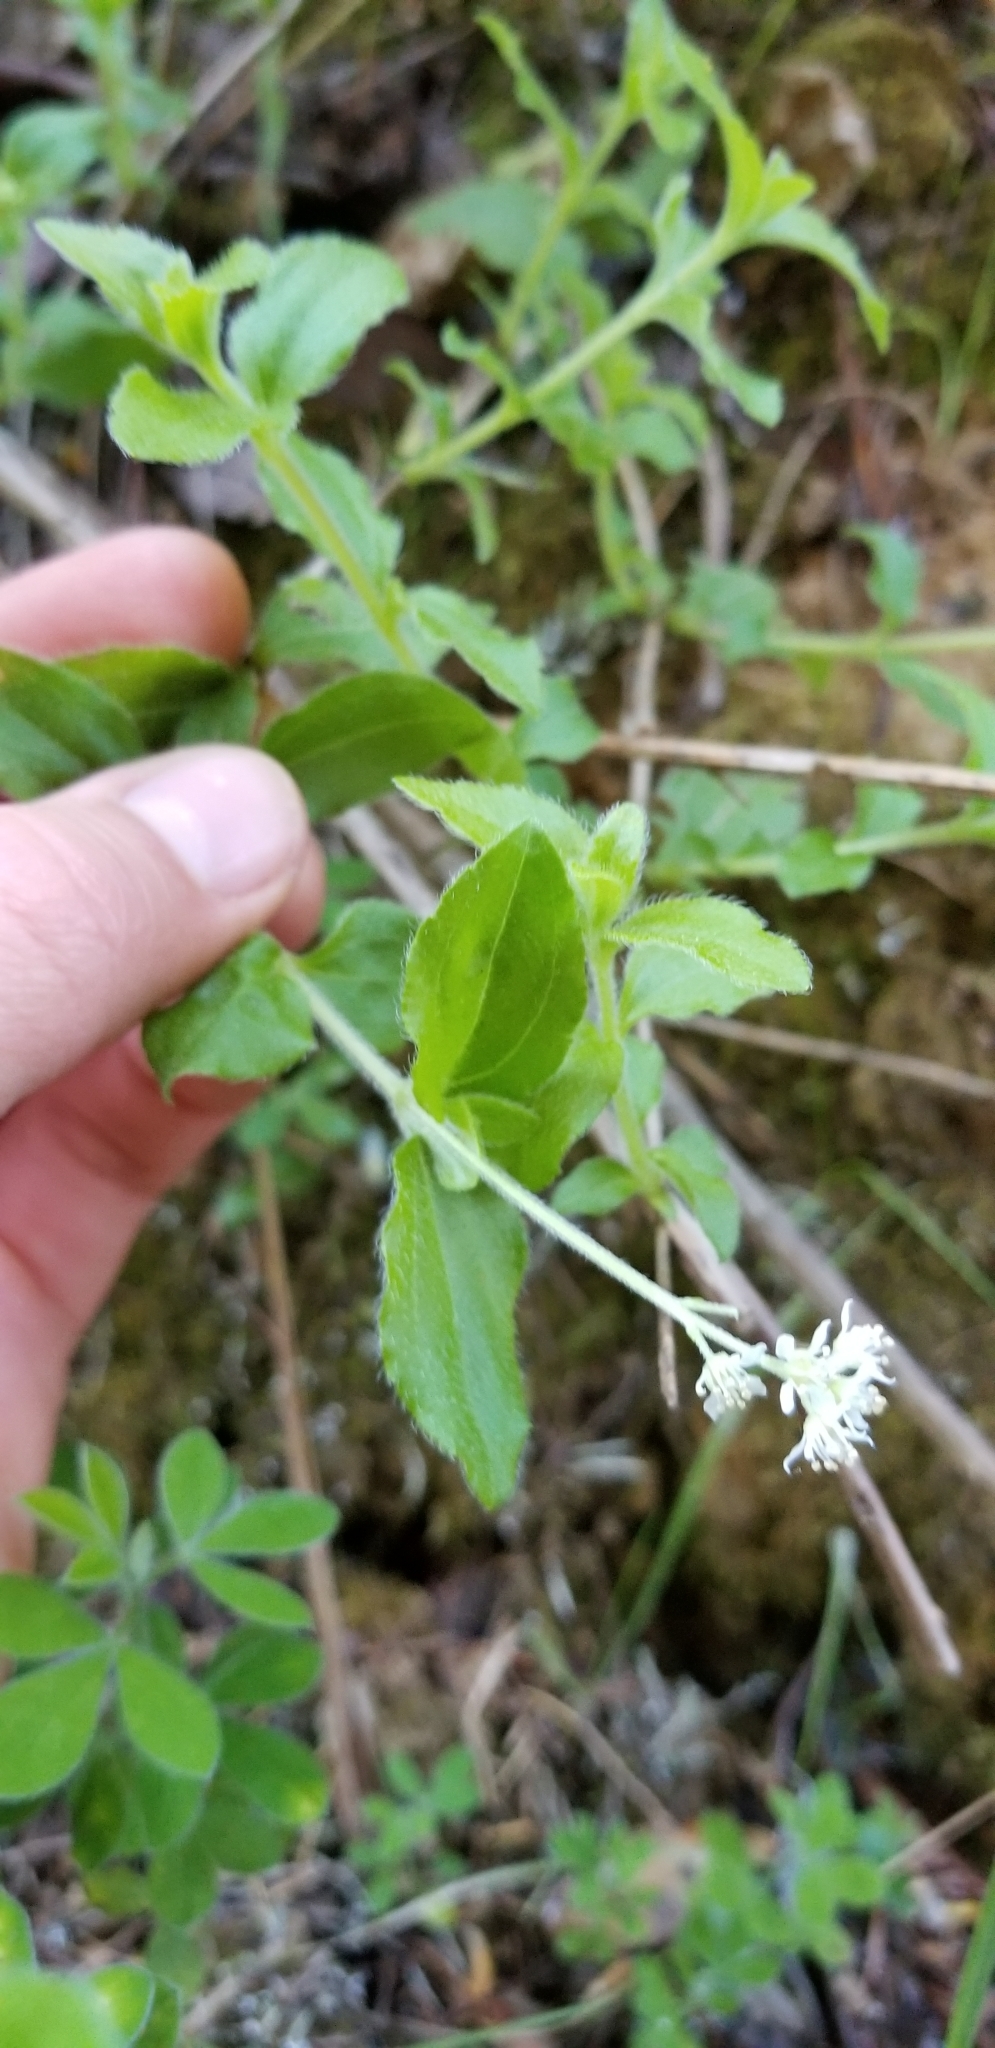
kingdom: Plantae
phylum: Tracheophyta
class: Magnoliopsida
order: Cornales
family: Hydrangeaceae
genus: Whipplea
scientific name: Whipplea modesta
